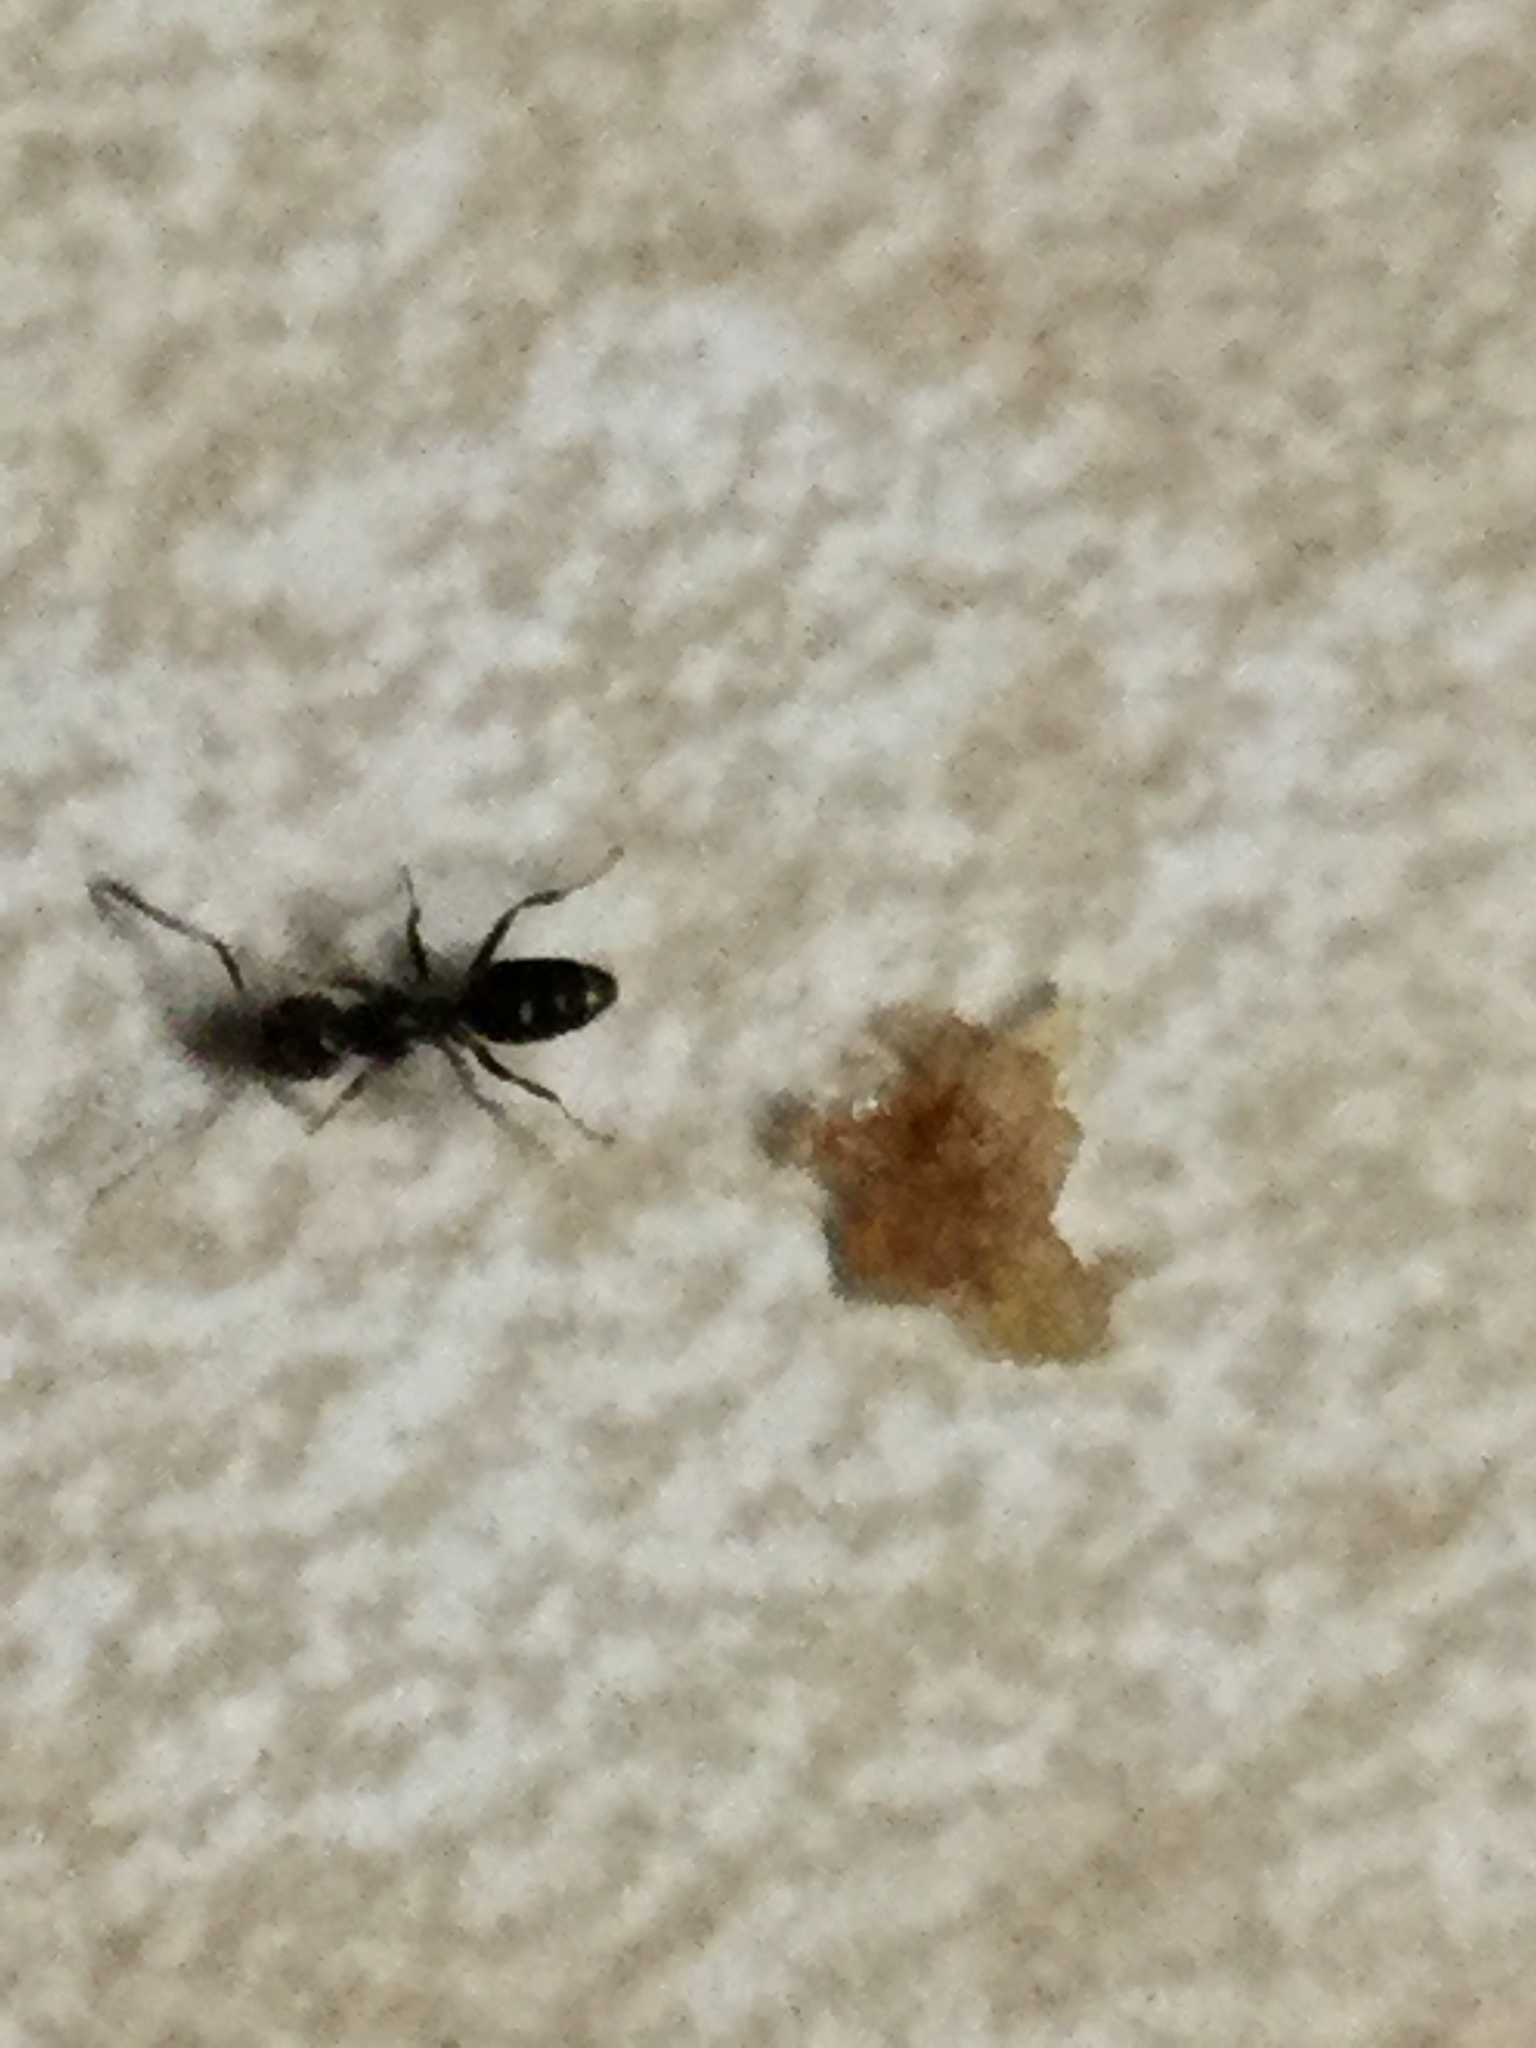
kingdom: Animalia
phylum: Arthropoda
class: Insecta
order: Hymenoptera
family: Formicidae
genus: Tapinoma
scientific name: Tapinoma sessile
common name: Odorous house ant
